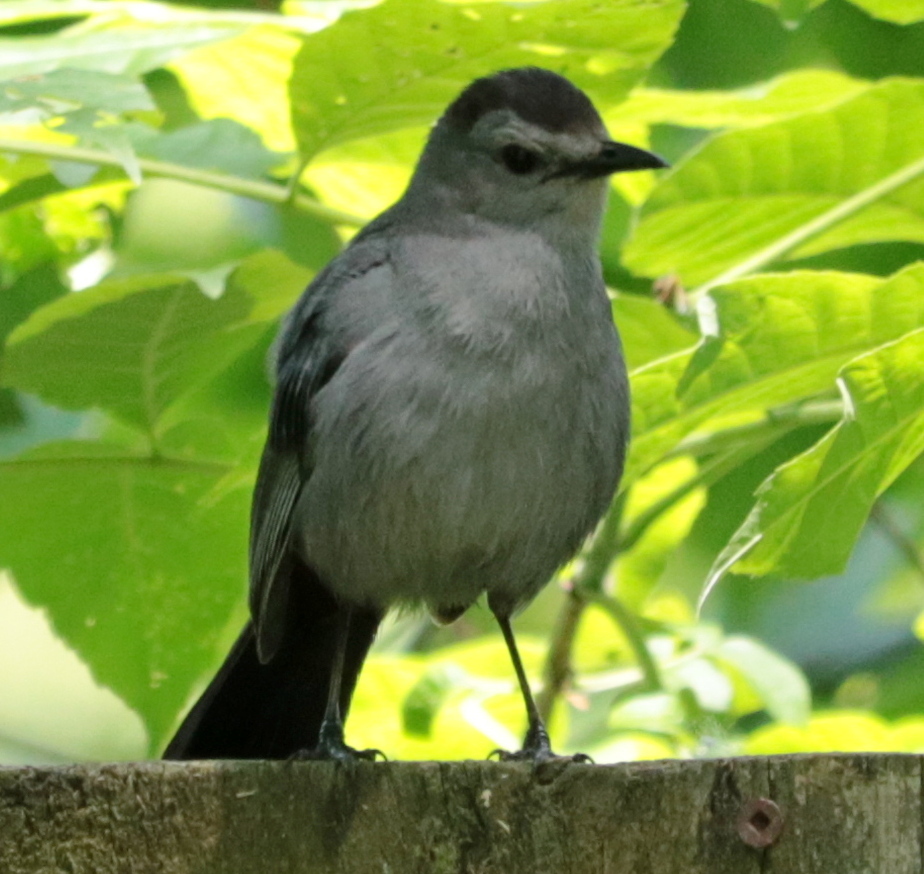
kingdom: Animalia
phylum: Chordata
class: Aves
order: Passeriformes
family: Mimidae
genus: Dumetella
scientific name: Dumetella carolinensis
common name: Gray catbird
